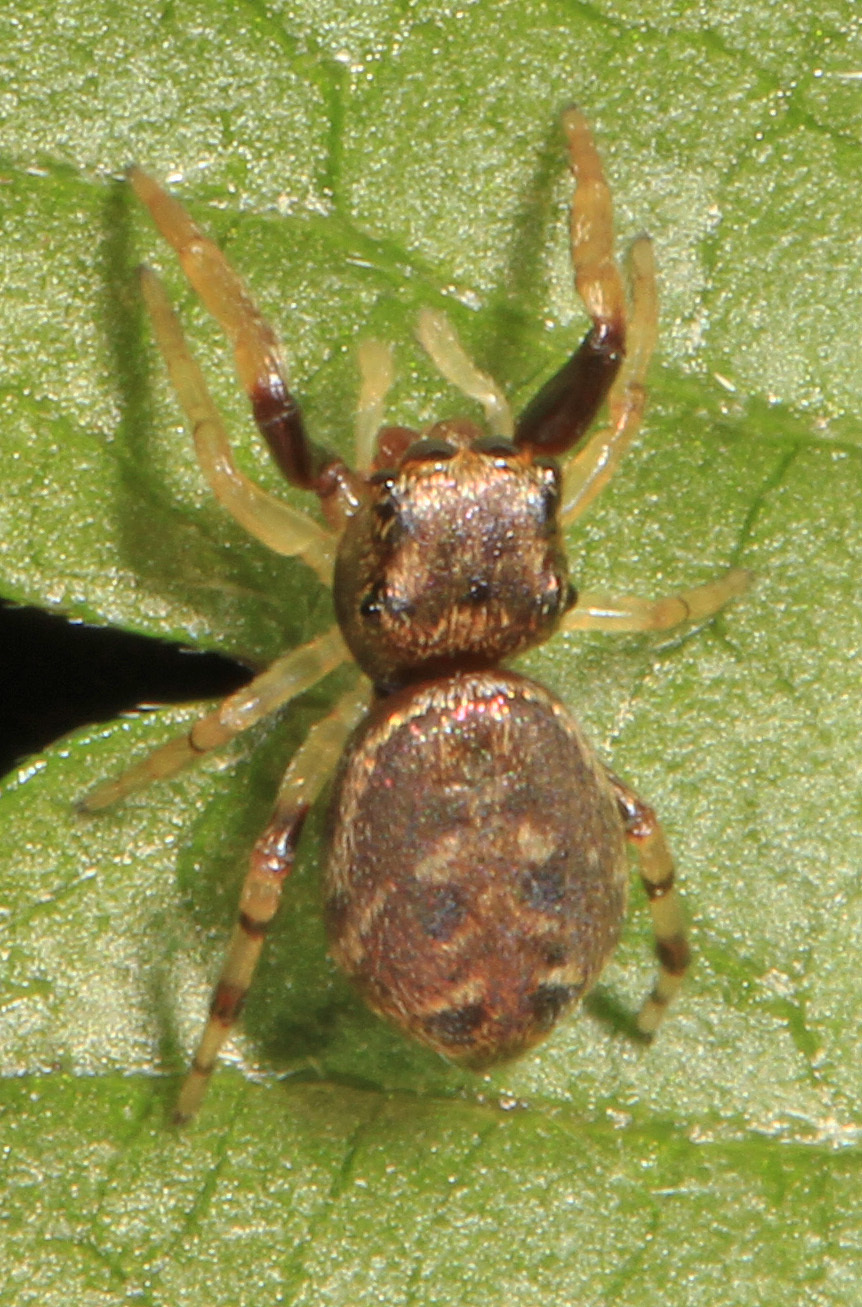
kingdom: Animalia
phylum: Arthropoda
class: Arachnida
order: Araneae
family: Salticidae
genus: Zygoballus
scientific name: Zygoballus rufipes
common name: Jumping spiders
